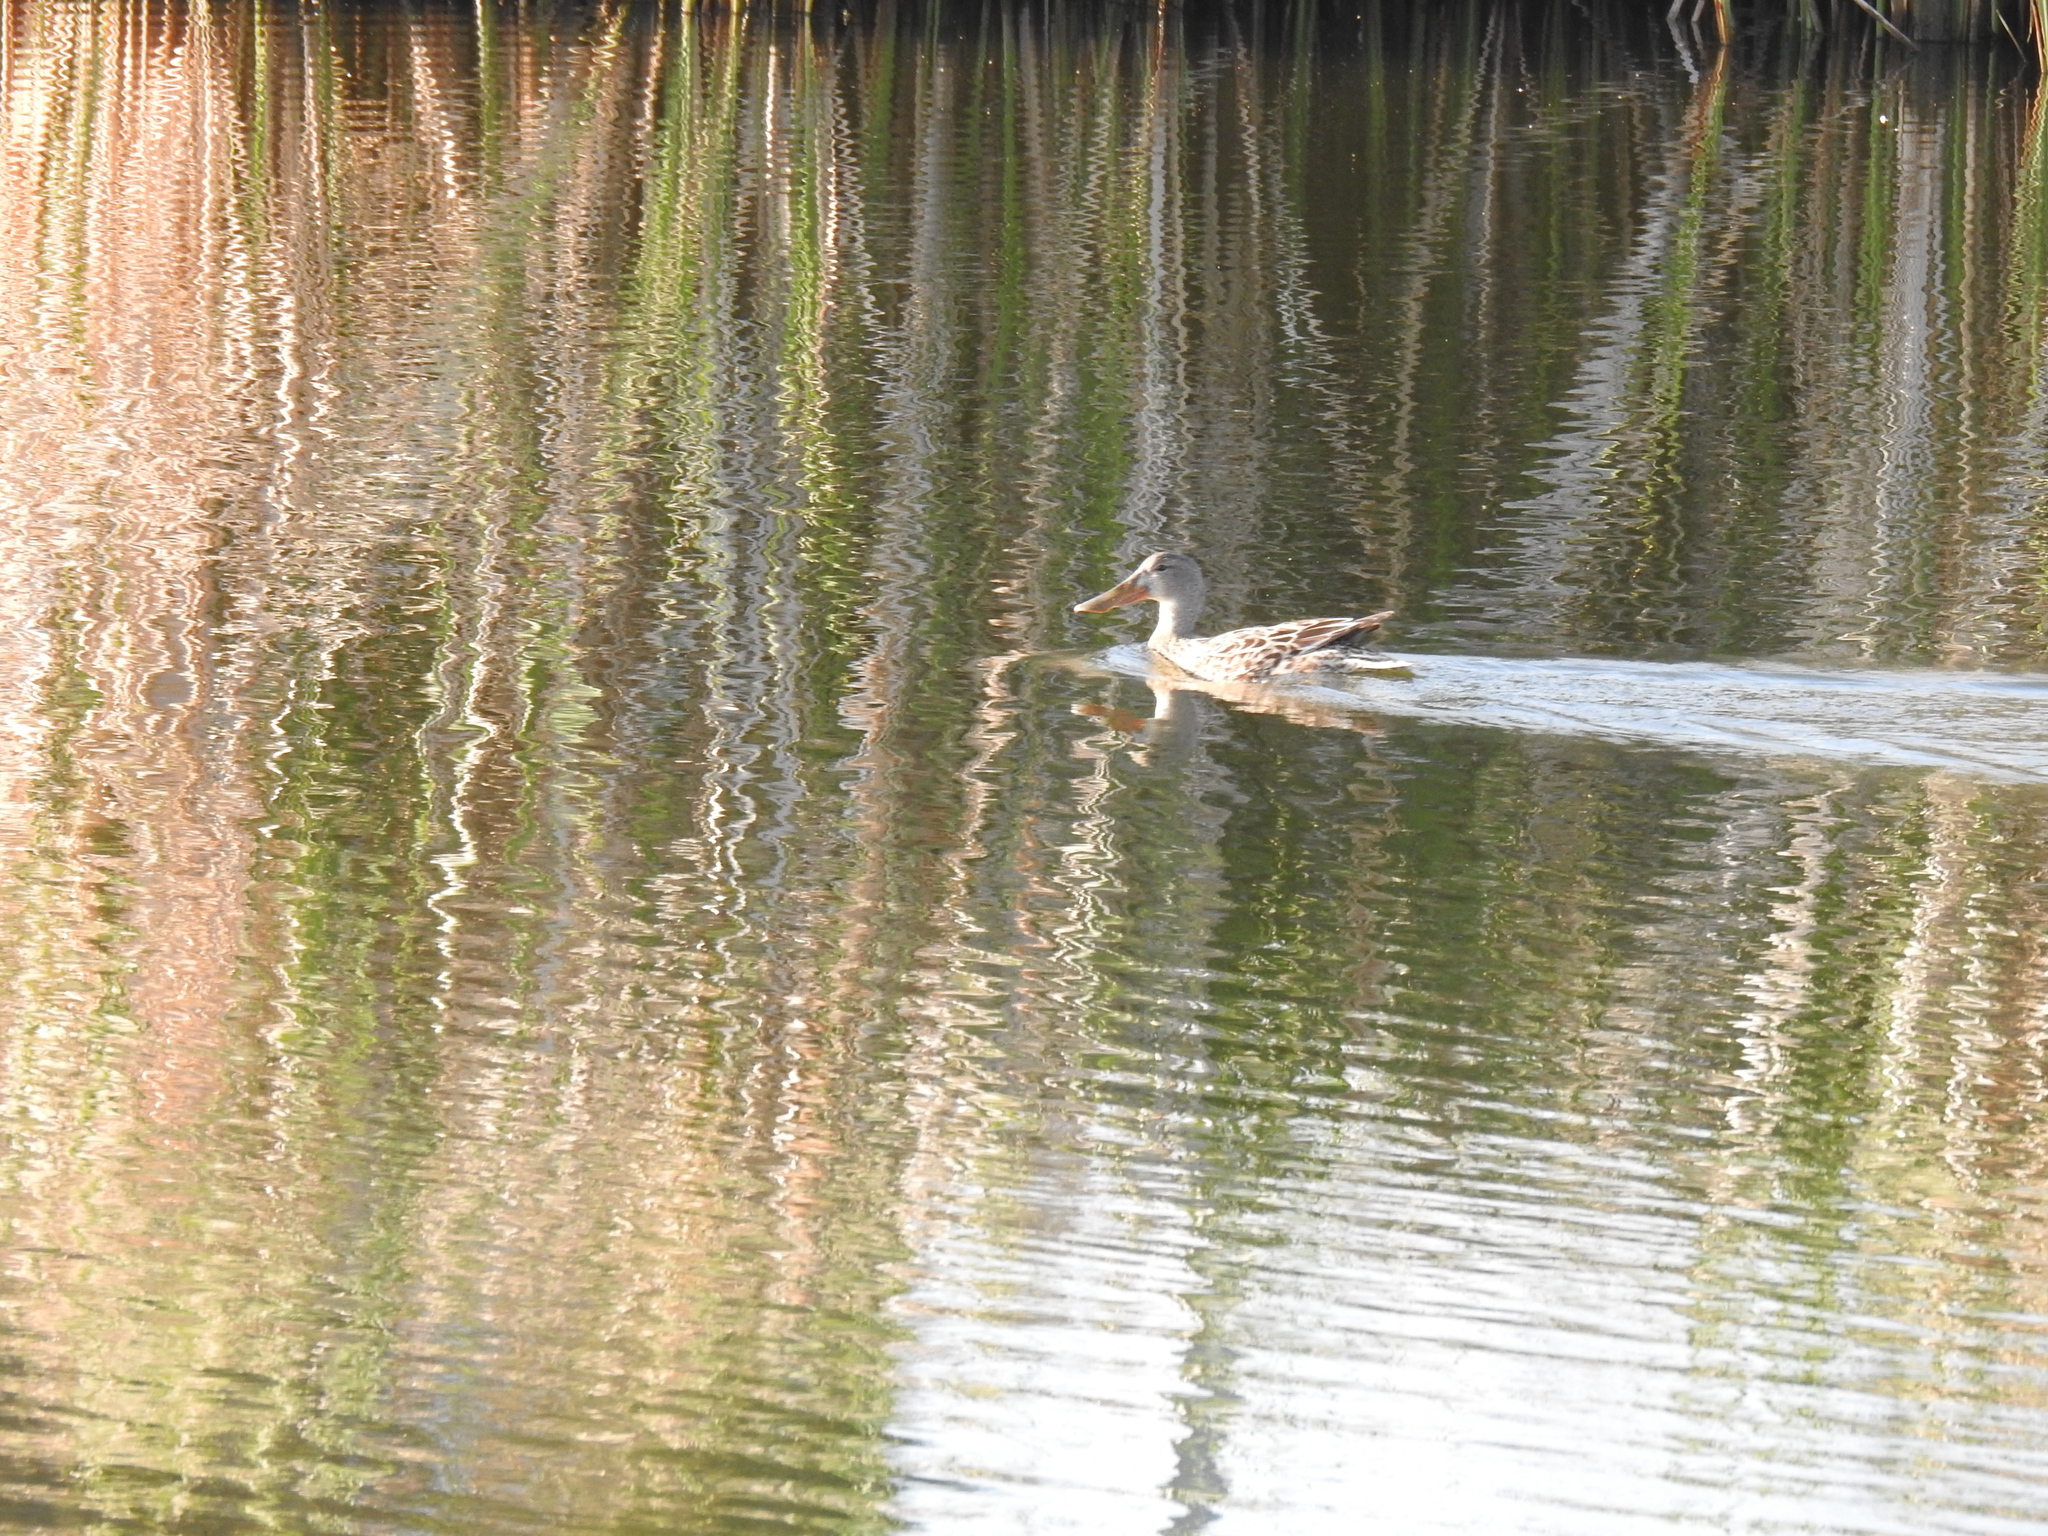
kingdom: Animalia
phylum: Chordata
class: Aves
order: Anseriformes
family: Anatidae
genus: Spatula
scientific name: Spatula clypeata
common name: Northern shoveler
